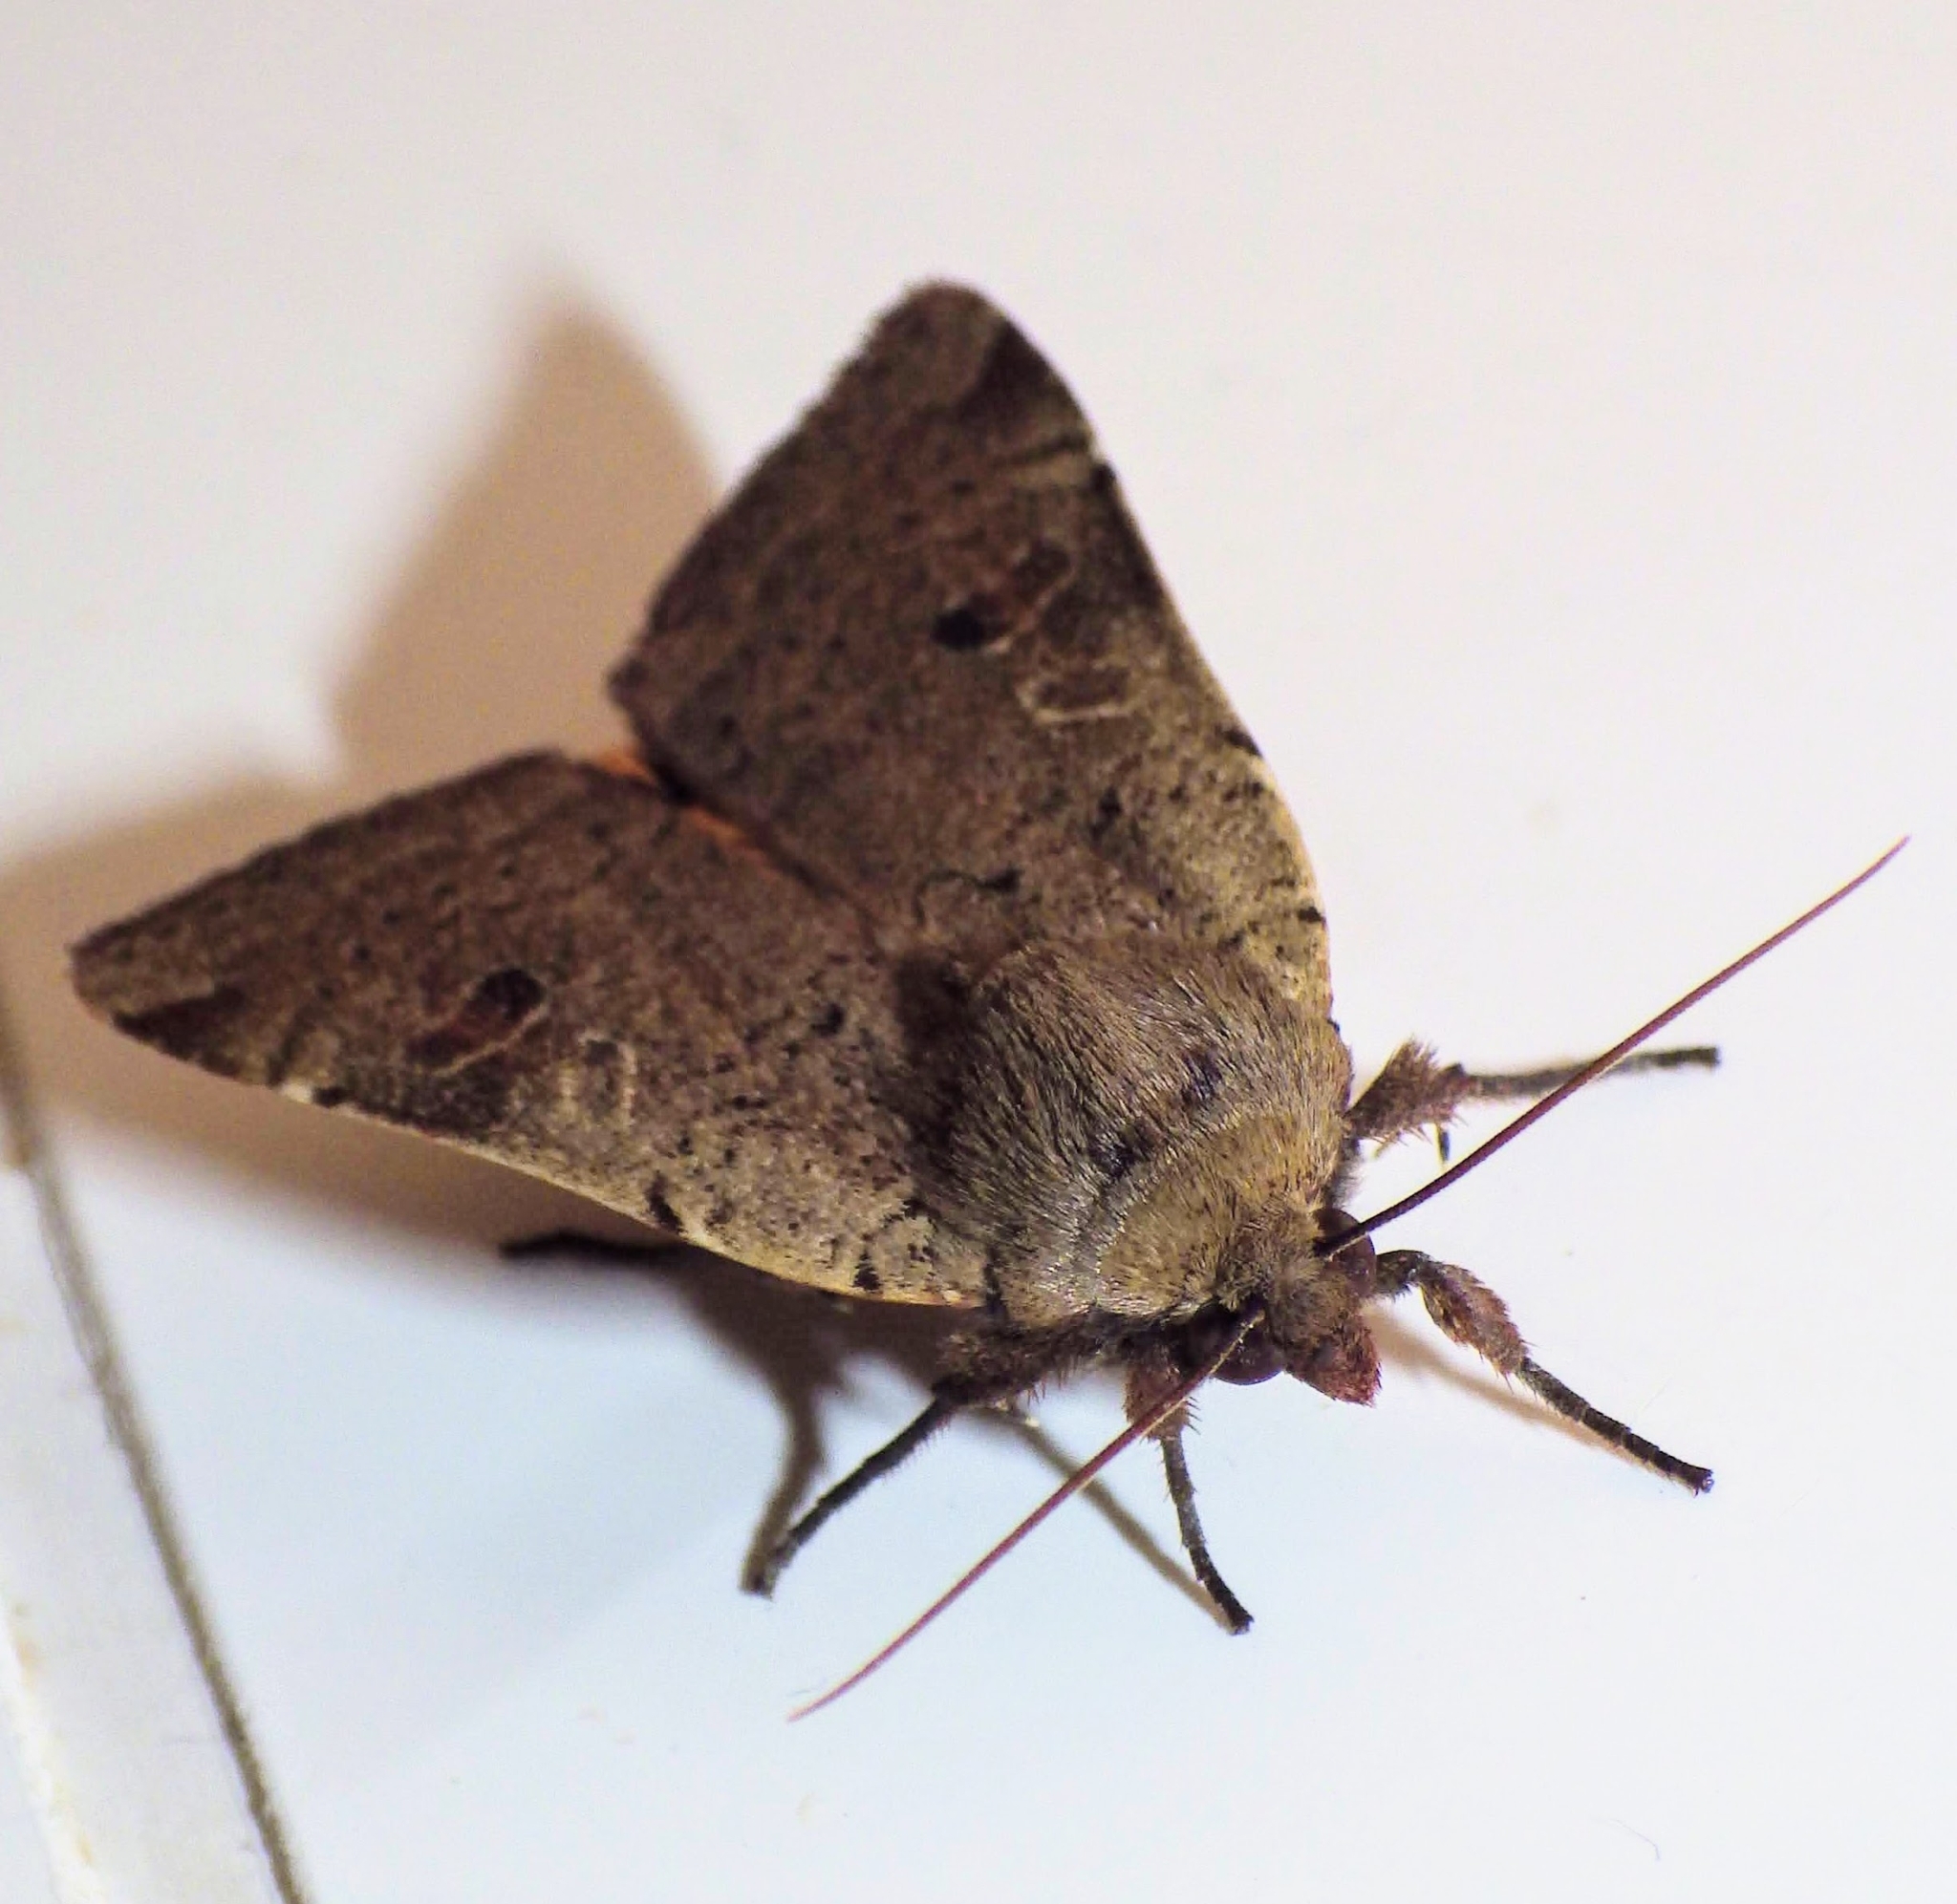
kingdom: Animalia
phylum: Arthropoda
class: Insecta
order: Lepidoptera
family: Noctuidae
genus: Noctua
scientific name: Noctua comes
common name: Lesser yellow underwing
